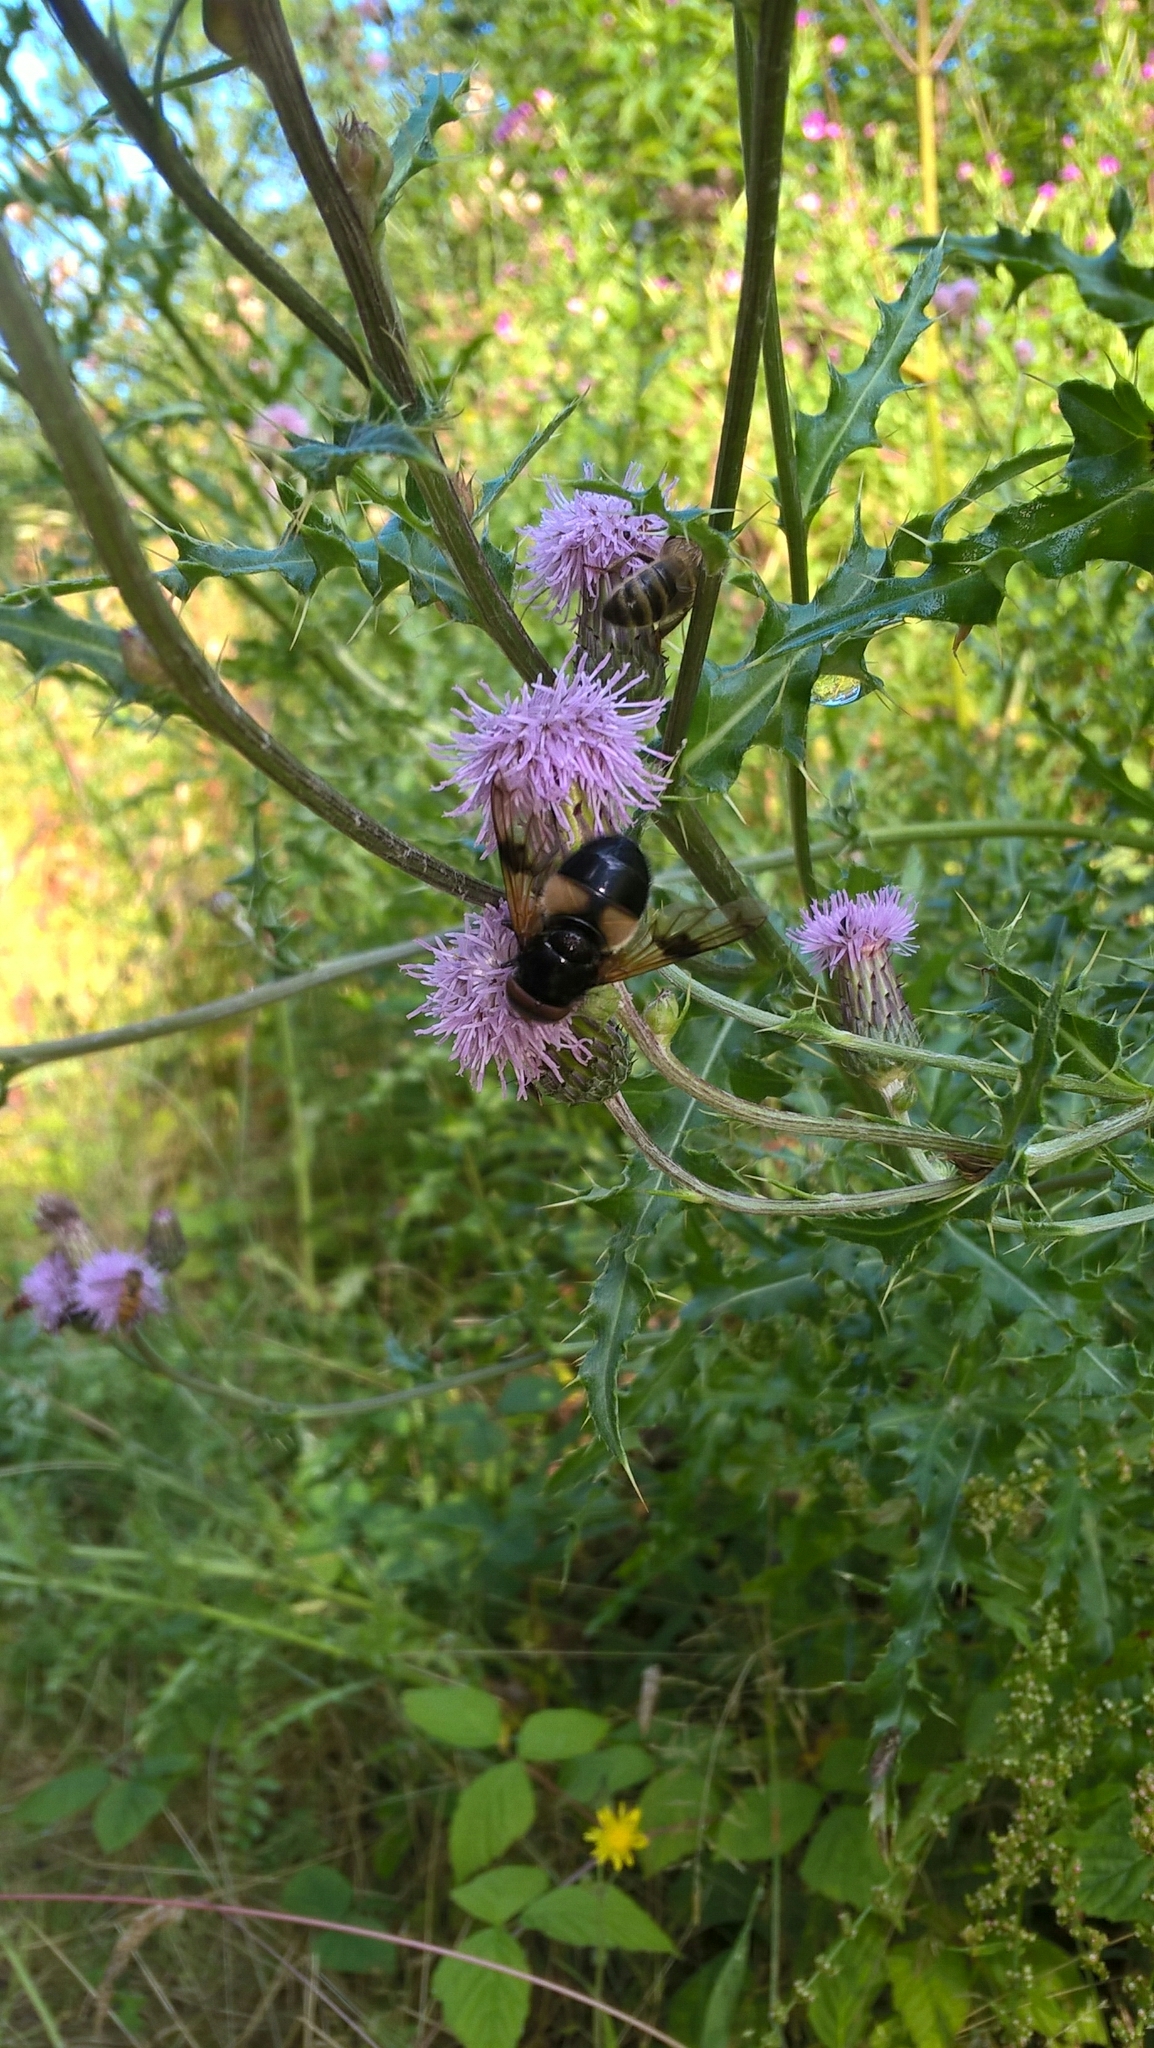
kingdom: Animalia
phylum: Arthropoda
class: Insecta
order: Diptera
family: Syrphidae
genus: Volucella
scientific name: Volucella pellucens
